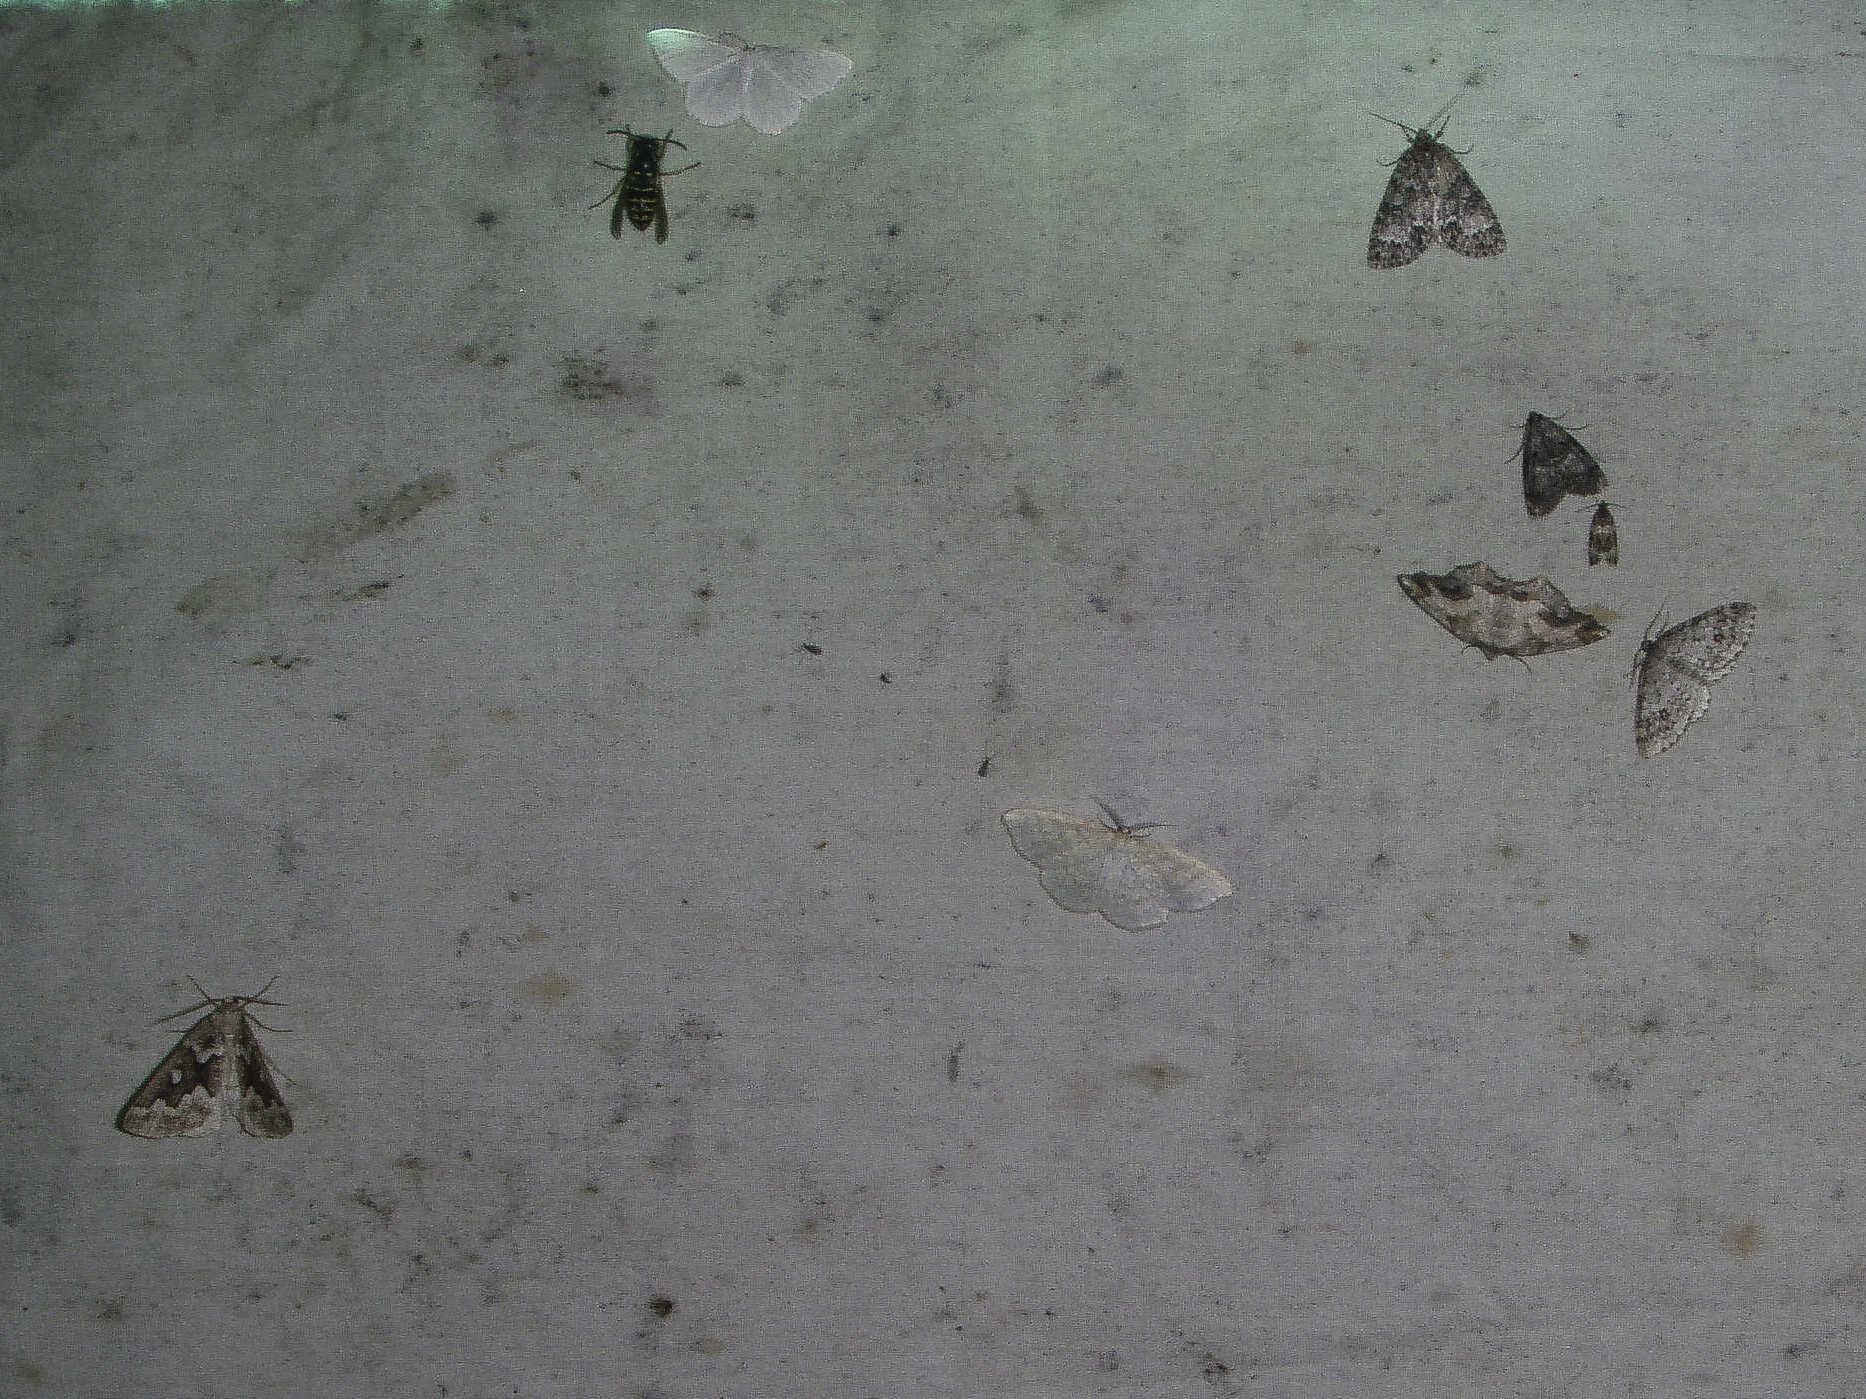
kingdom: Animalia
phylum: Arthropoda
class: Insecta
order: Lepidoptera
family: Geometridae
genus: Caripeta
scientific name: Caripeta divisata
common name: Gray spruce looper
